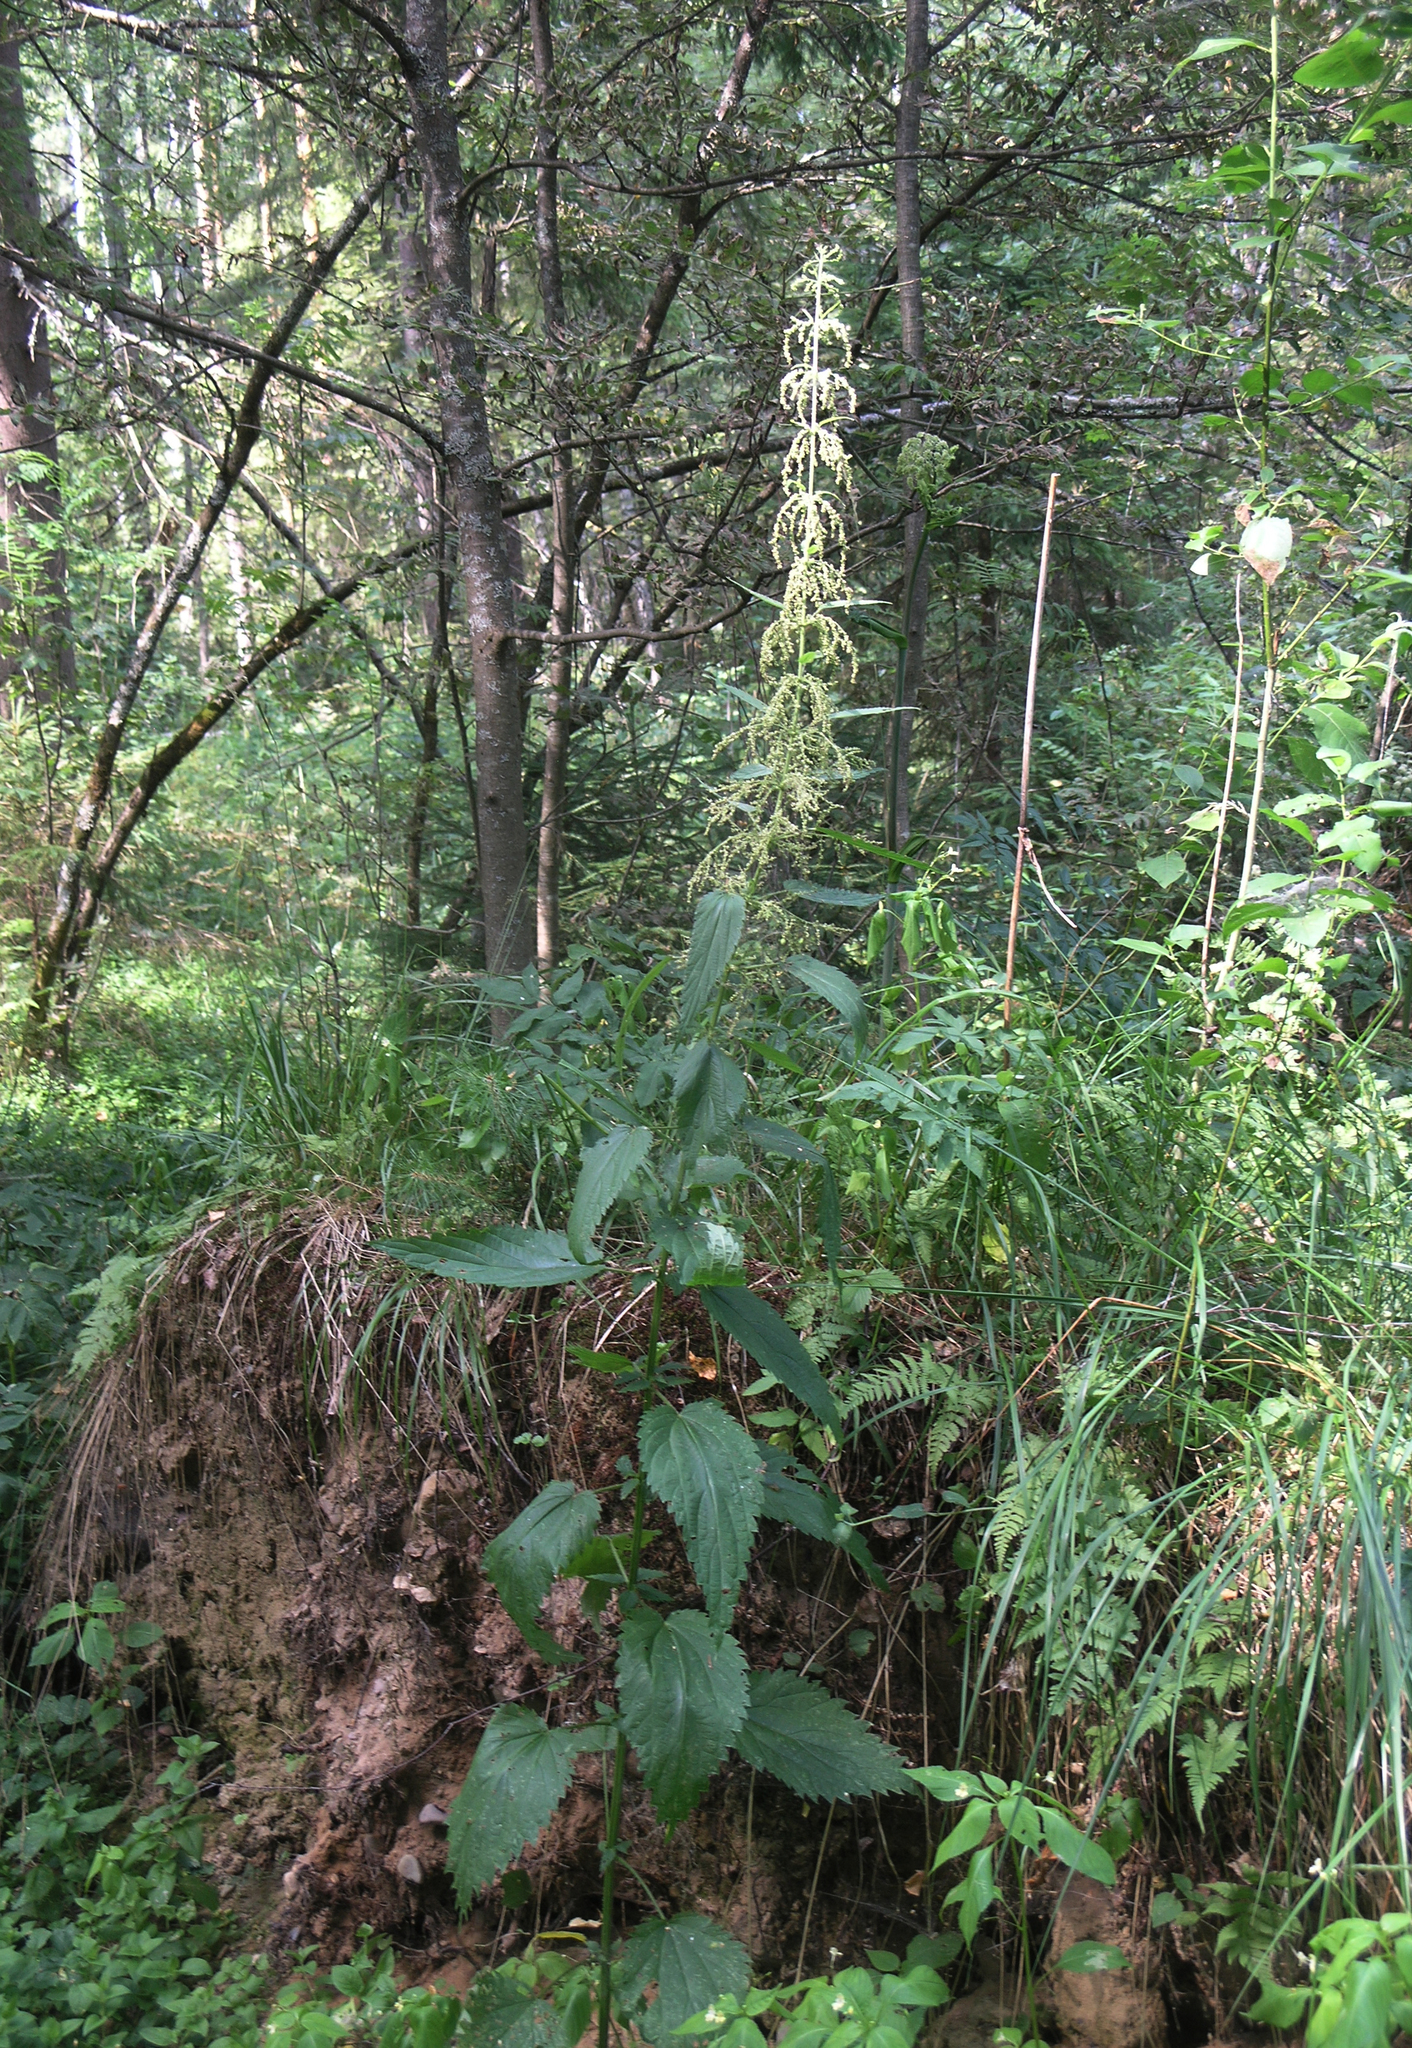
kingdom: Plantae
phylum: Tracheophyta
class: Magnoliopsida
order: Rosales
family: Urticaceae
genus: Urtica
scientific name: Urtica dioica
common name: Common nettle
